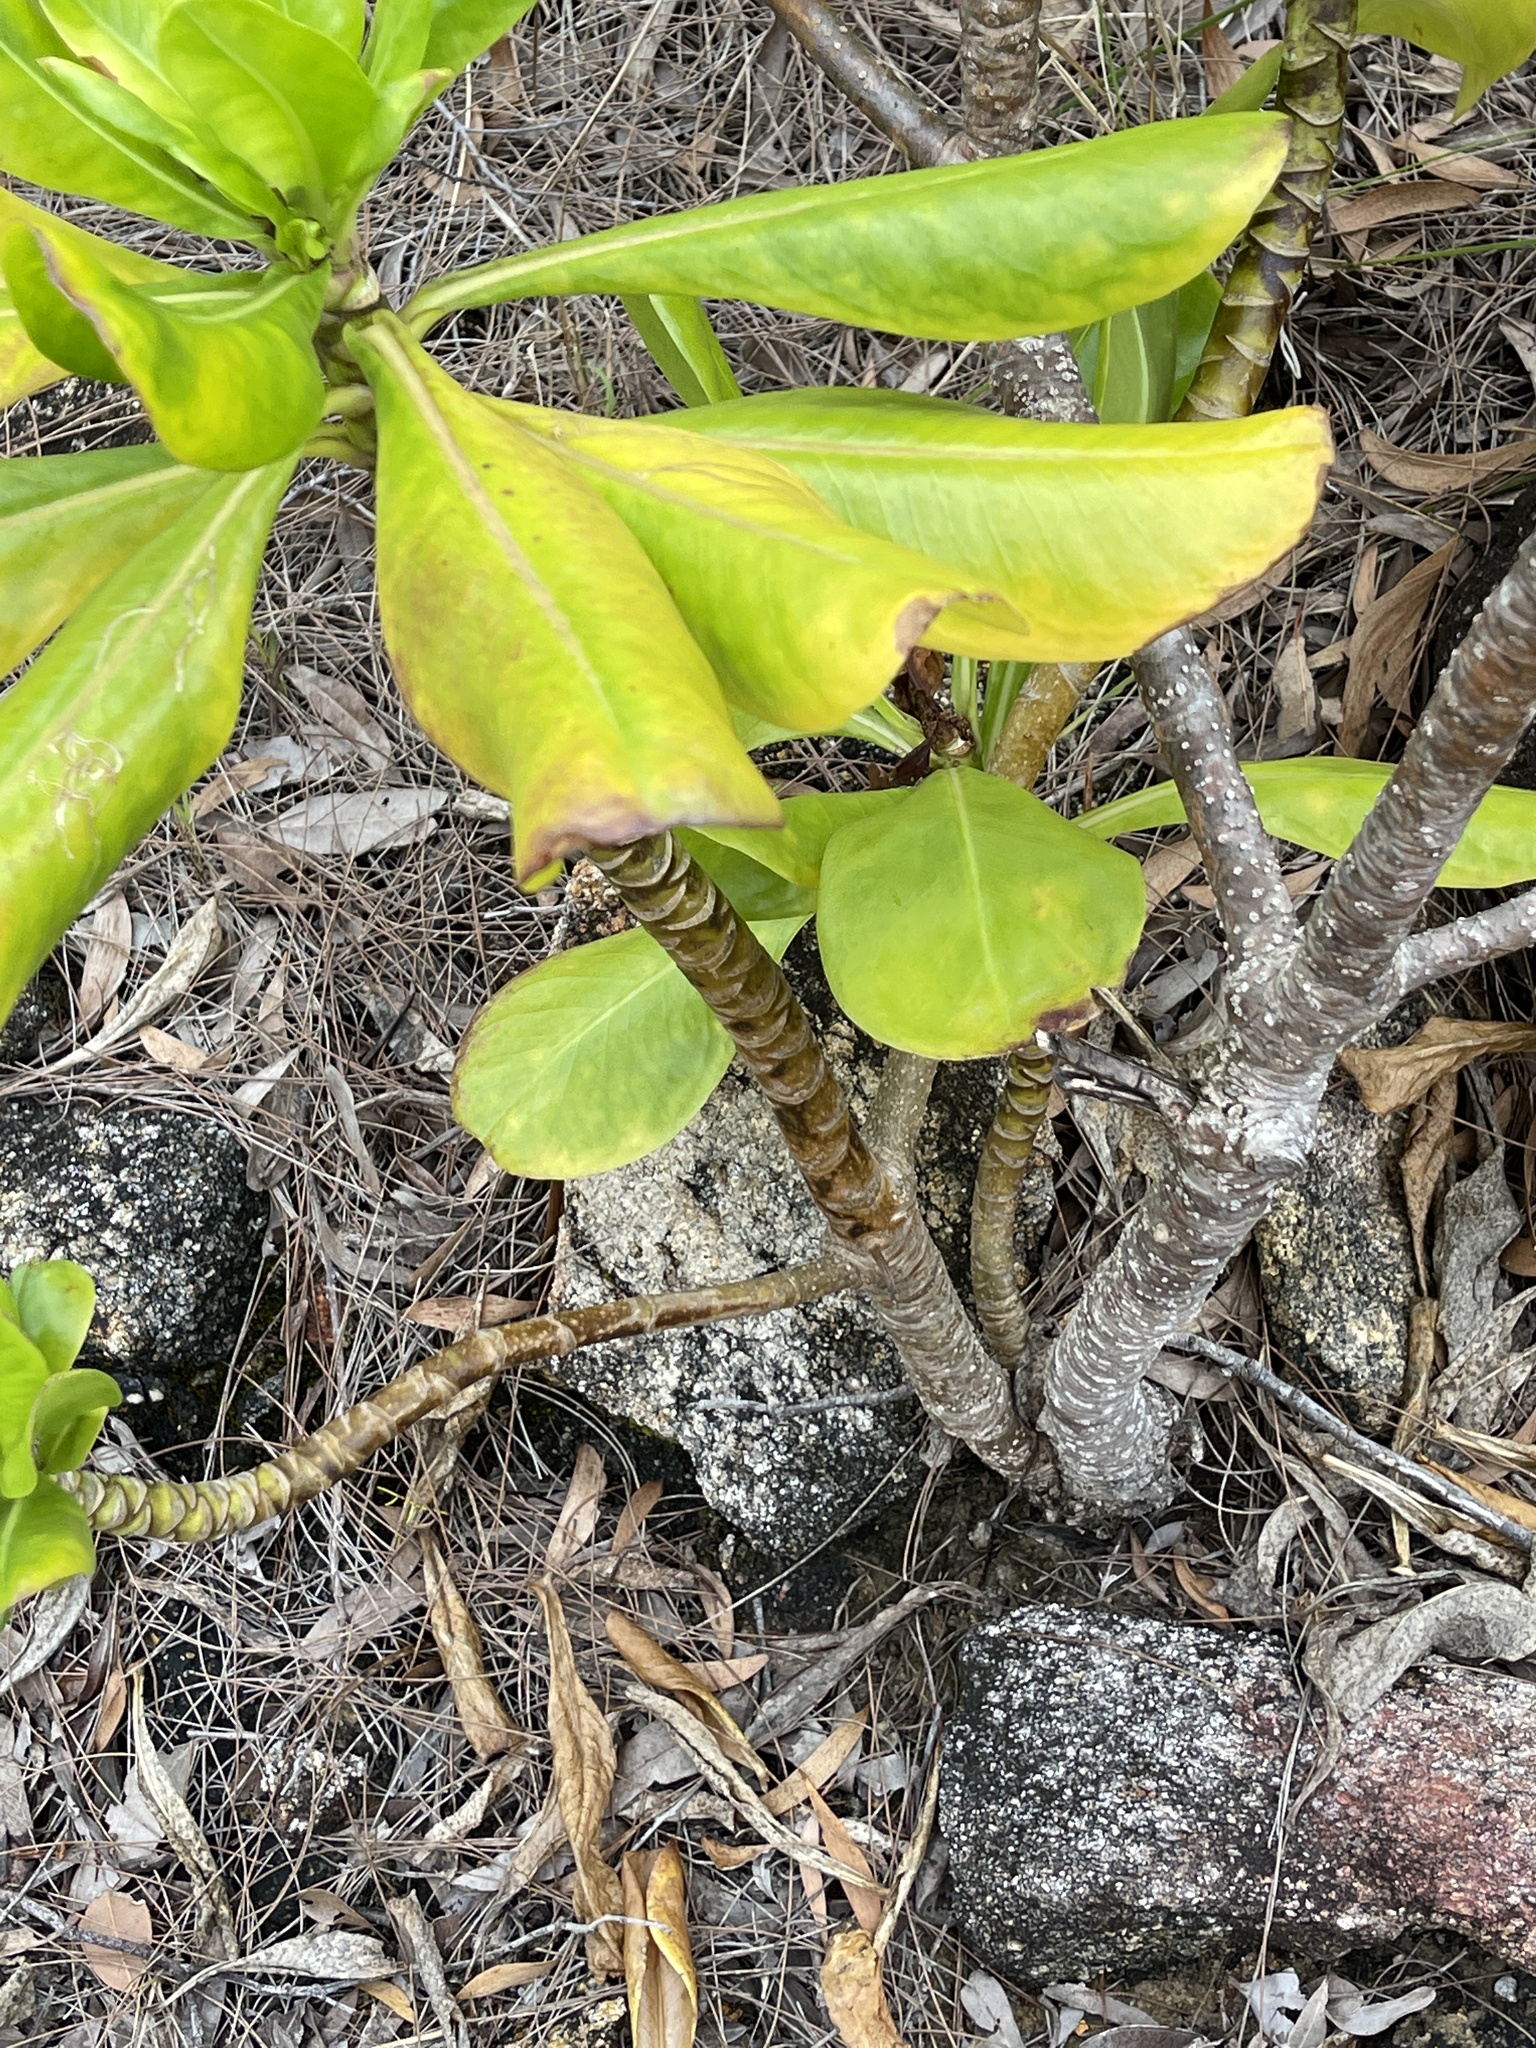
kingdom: Plantae
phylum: Tracheophyta
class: Magnoliopsida
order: Asterales
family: Goodeniaceae
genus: Scaevola
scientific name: Scaevola taccada
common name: Sea lettucetree
